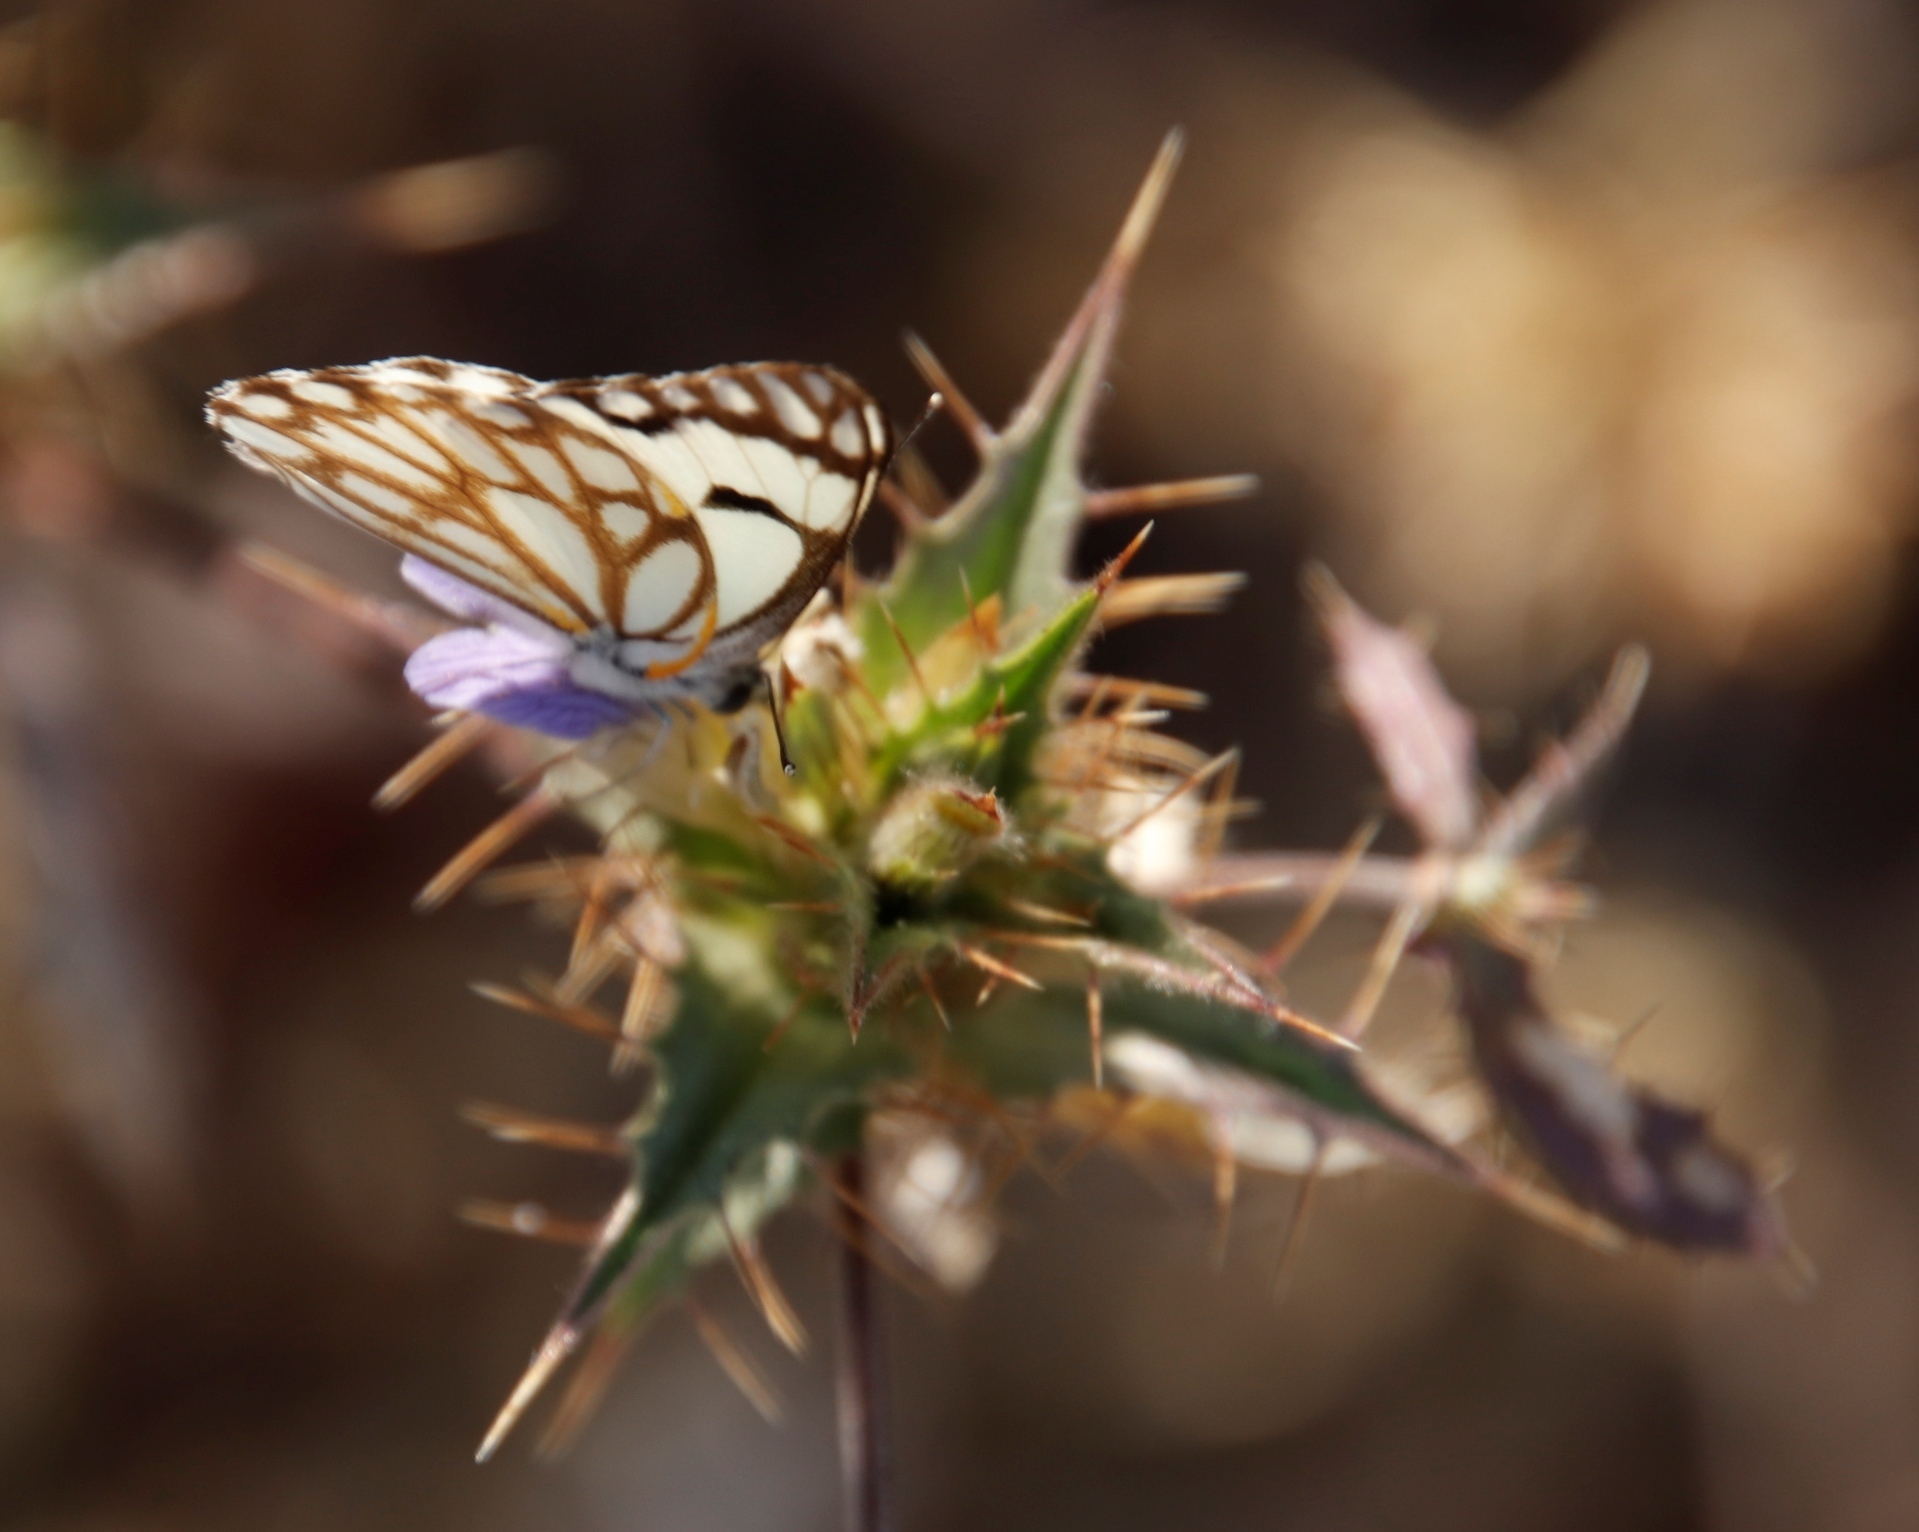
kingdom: Animalia
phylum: Arthropoda
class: Insecta
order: Lepidoptera
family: Pieridae
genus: Belenois
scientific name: Belenois aurota
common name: Brown-veined white
